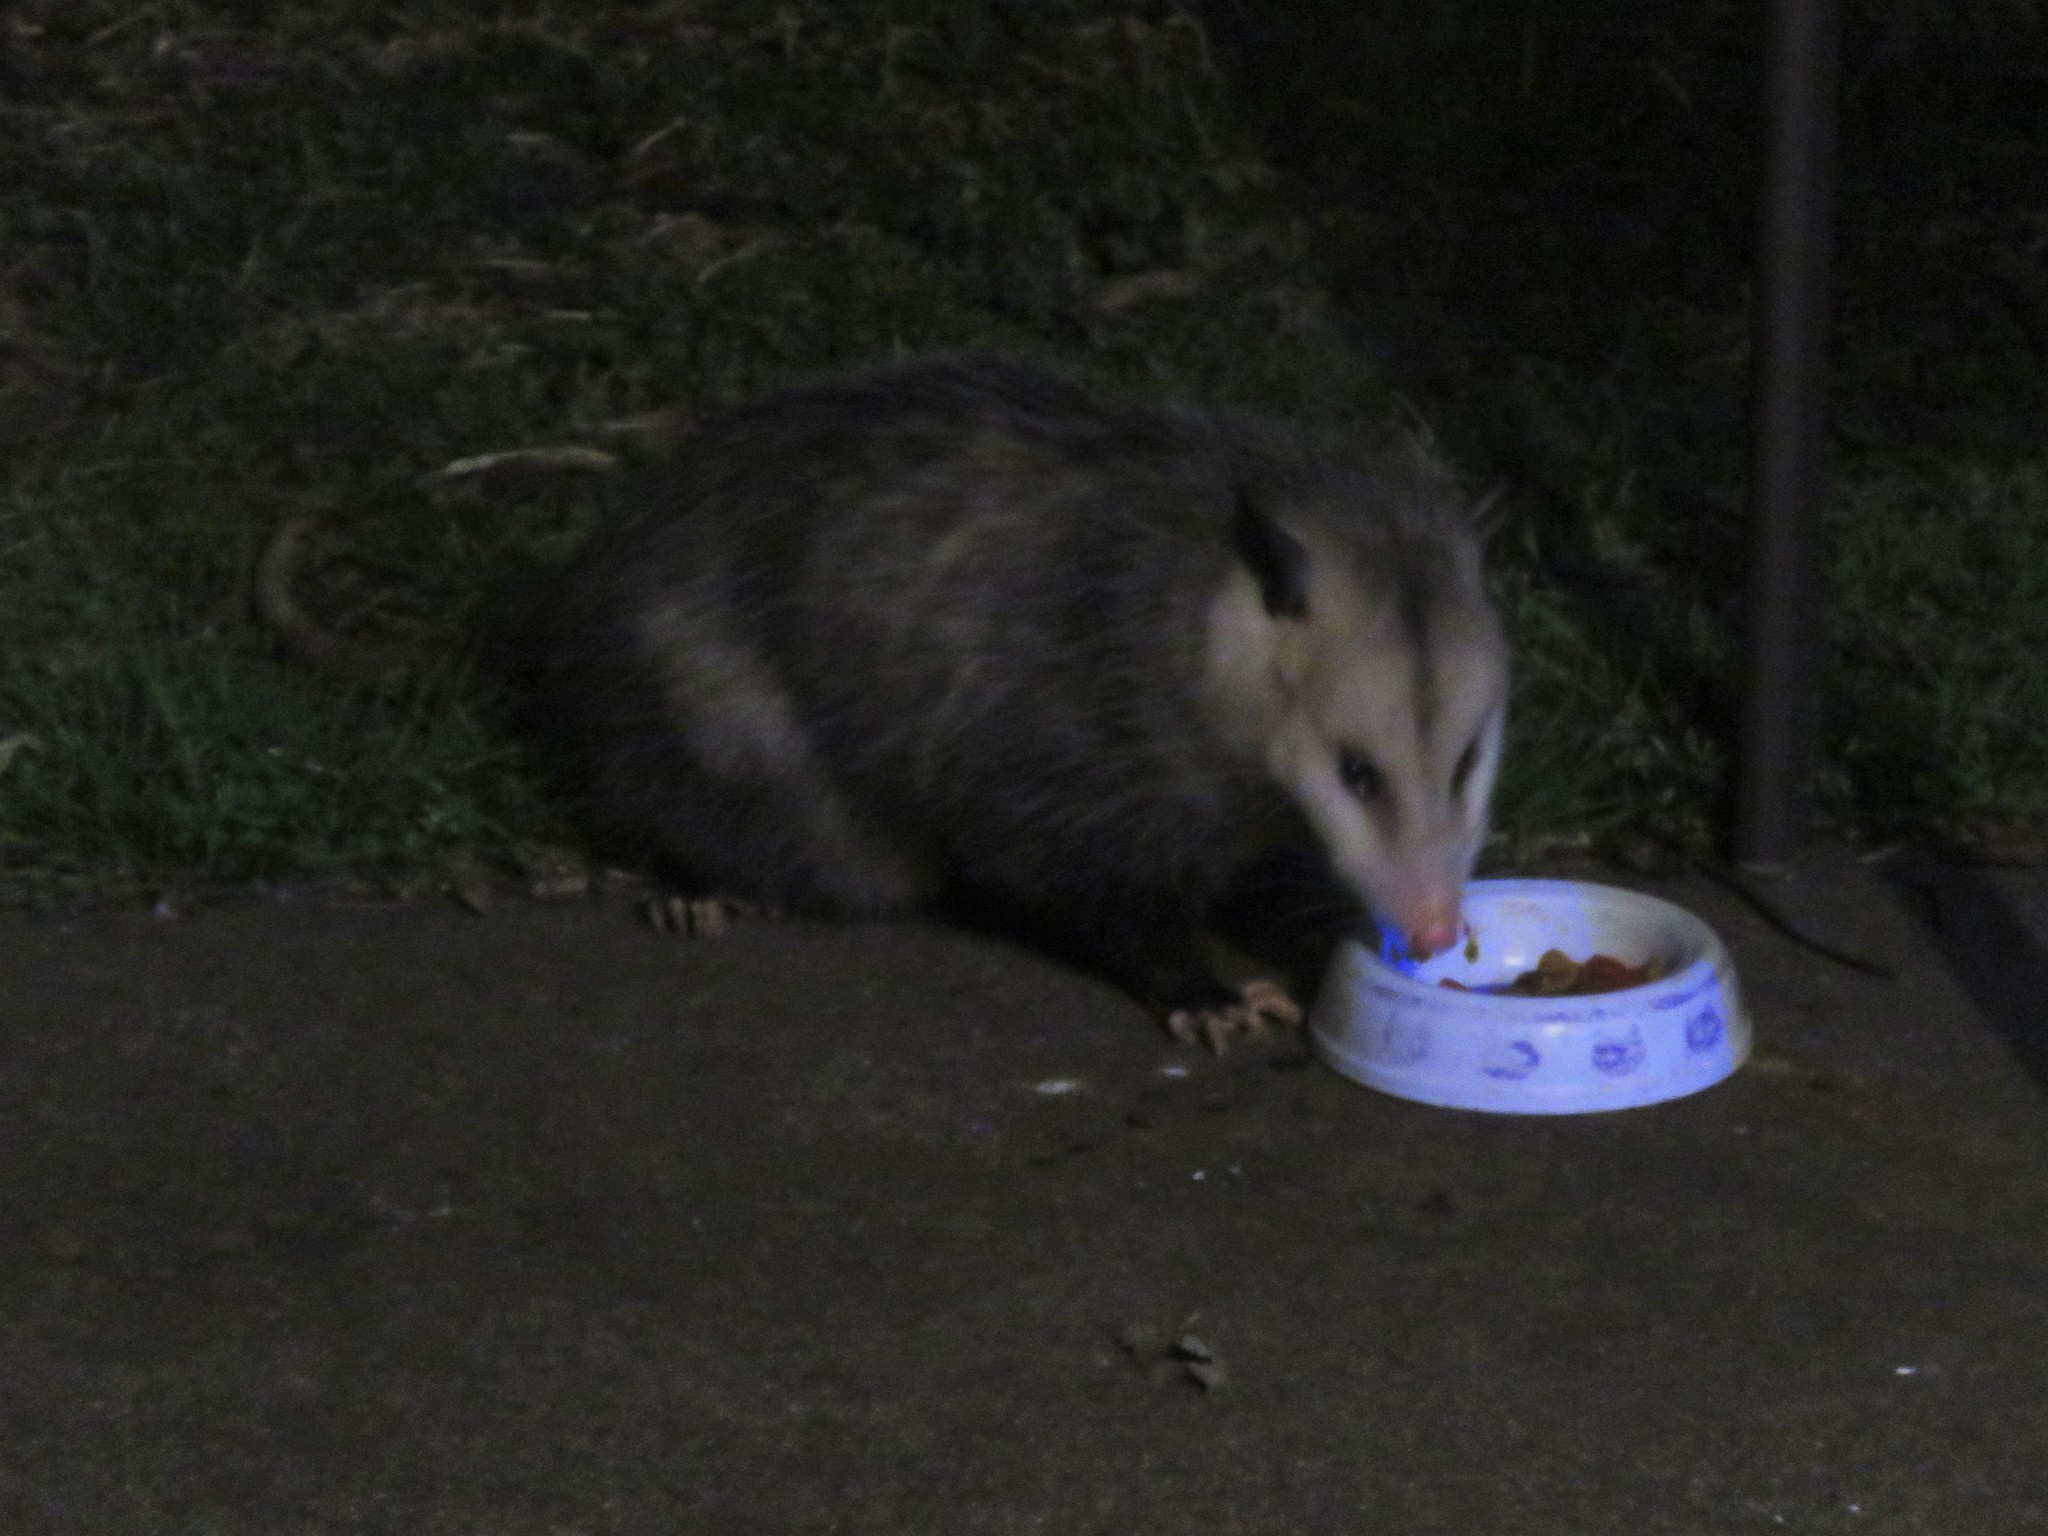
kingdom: Animalia
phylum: Chordata
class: Mammalia
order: Didelphimorphia
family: Didelphidae
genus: Didelphis
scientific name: Didelphis virginiana
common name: Virginia opossum
